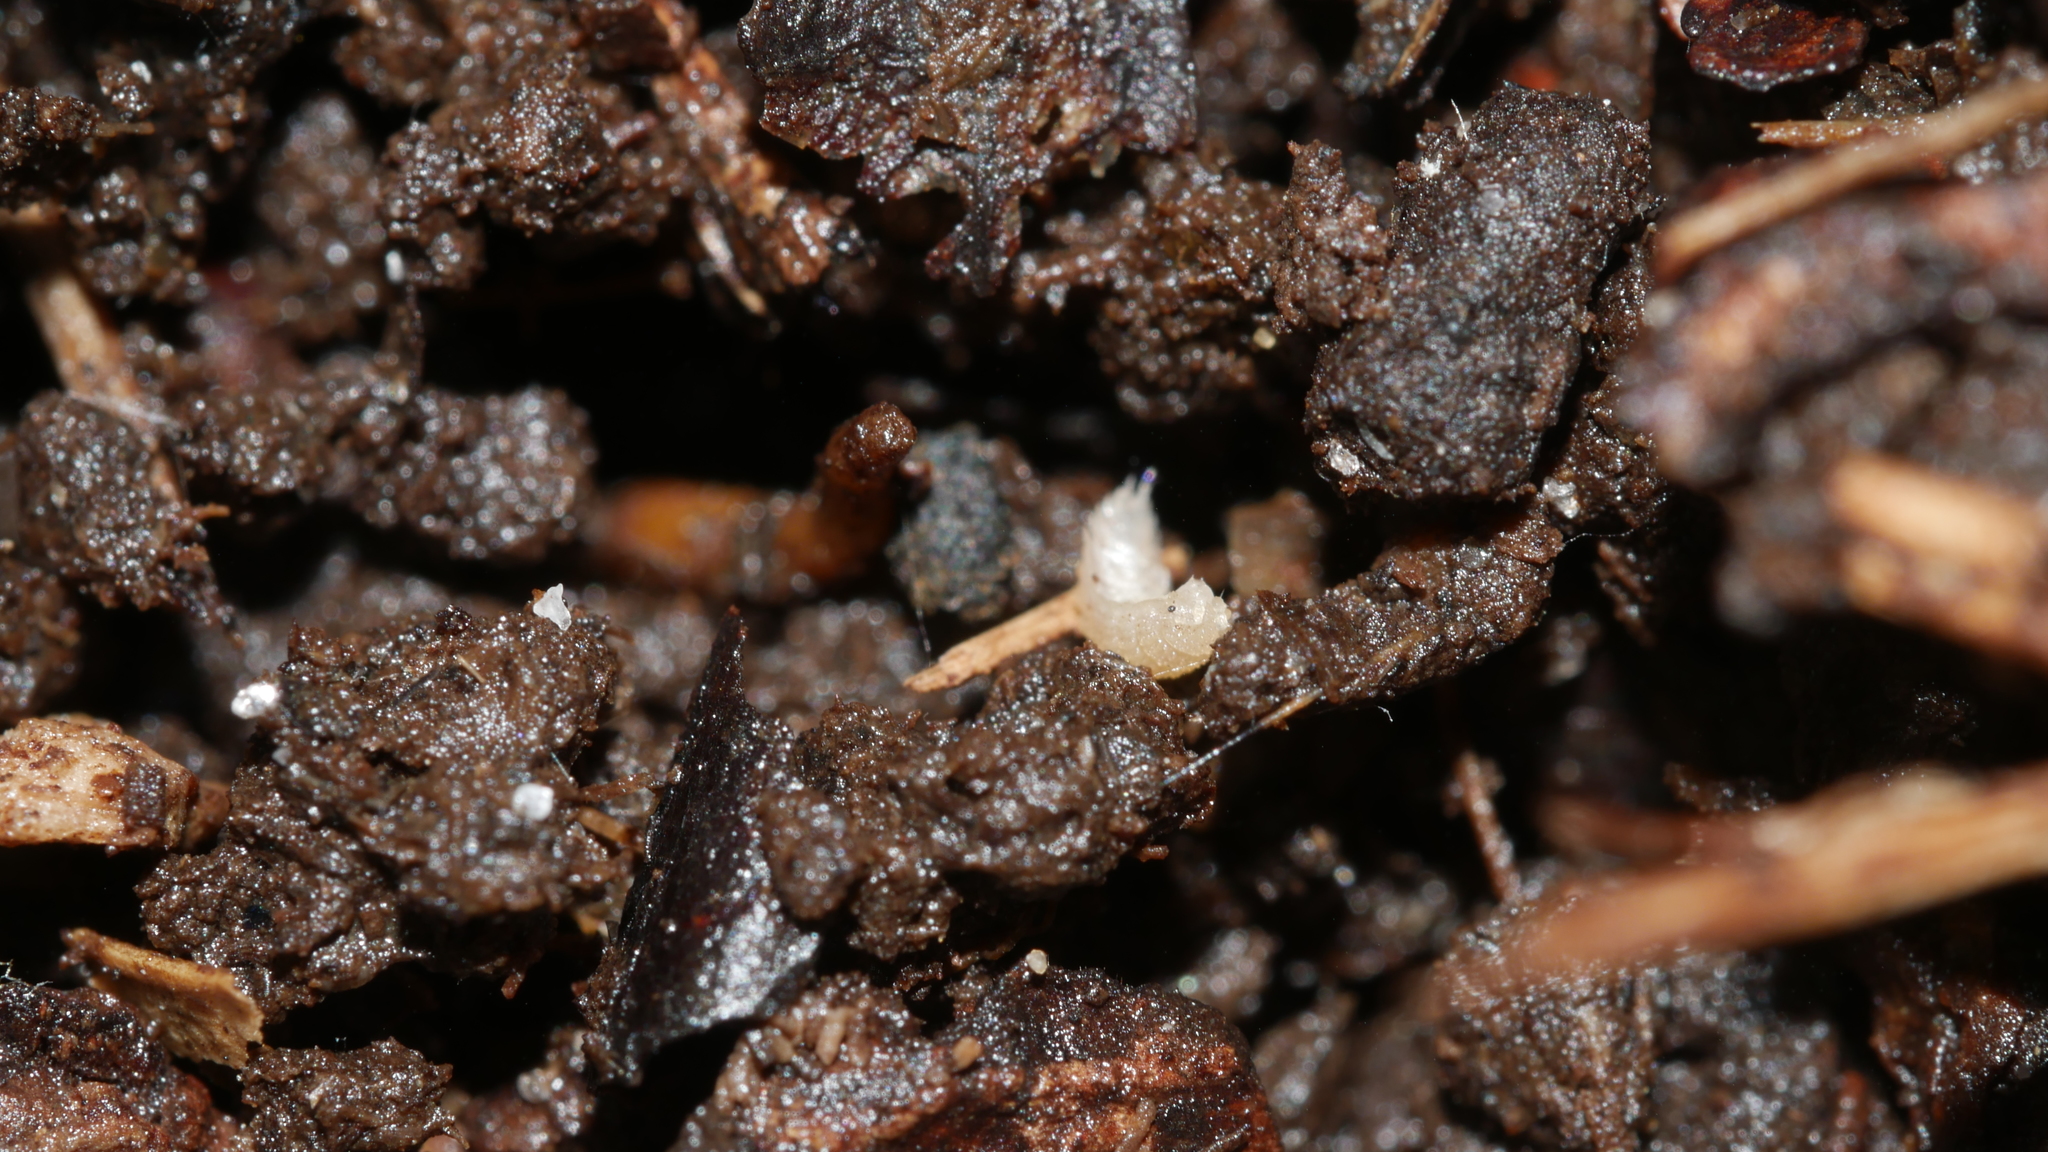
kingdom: Animalia
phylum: Arthropoda
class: Malacostraca
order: Isopoda
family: Trichoniscidae
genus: Haplophthalmus
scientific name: Haplophthalmus danicus
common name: Pillbug
